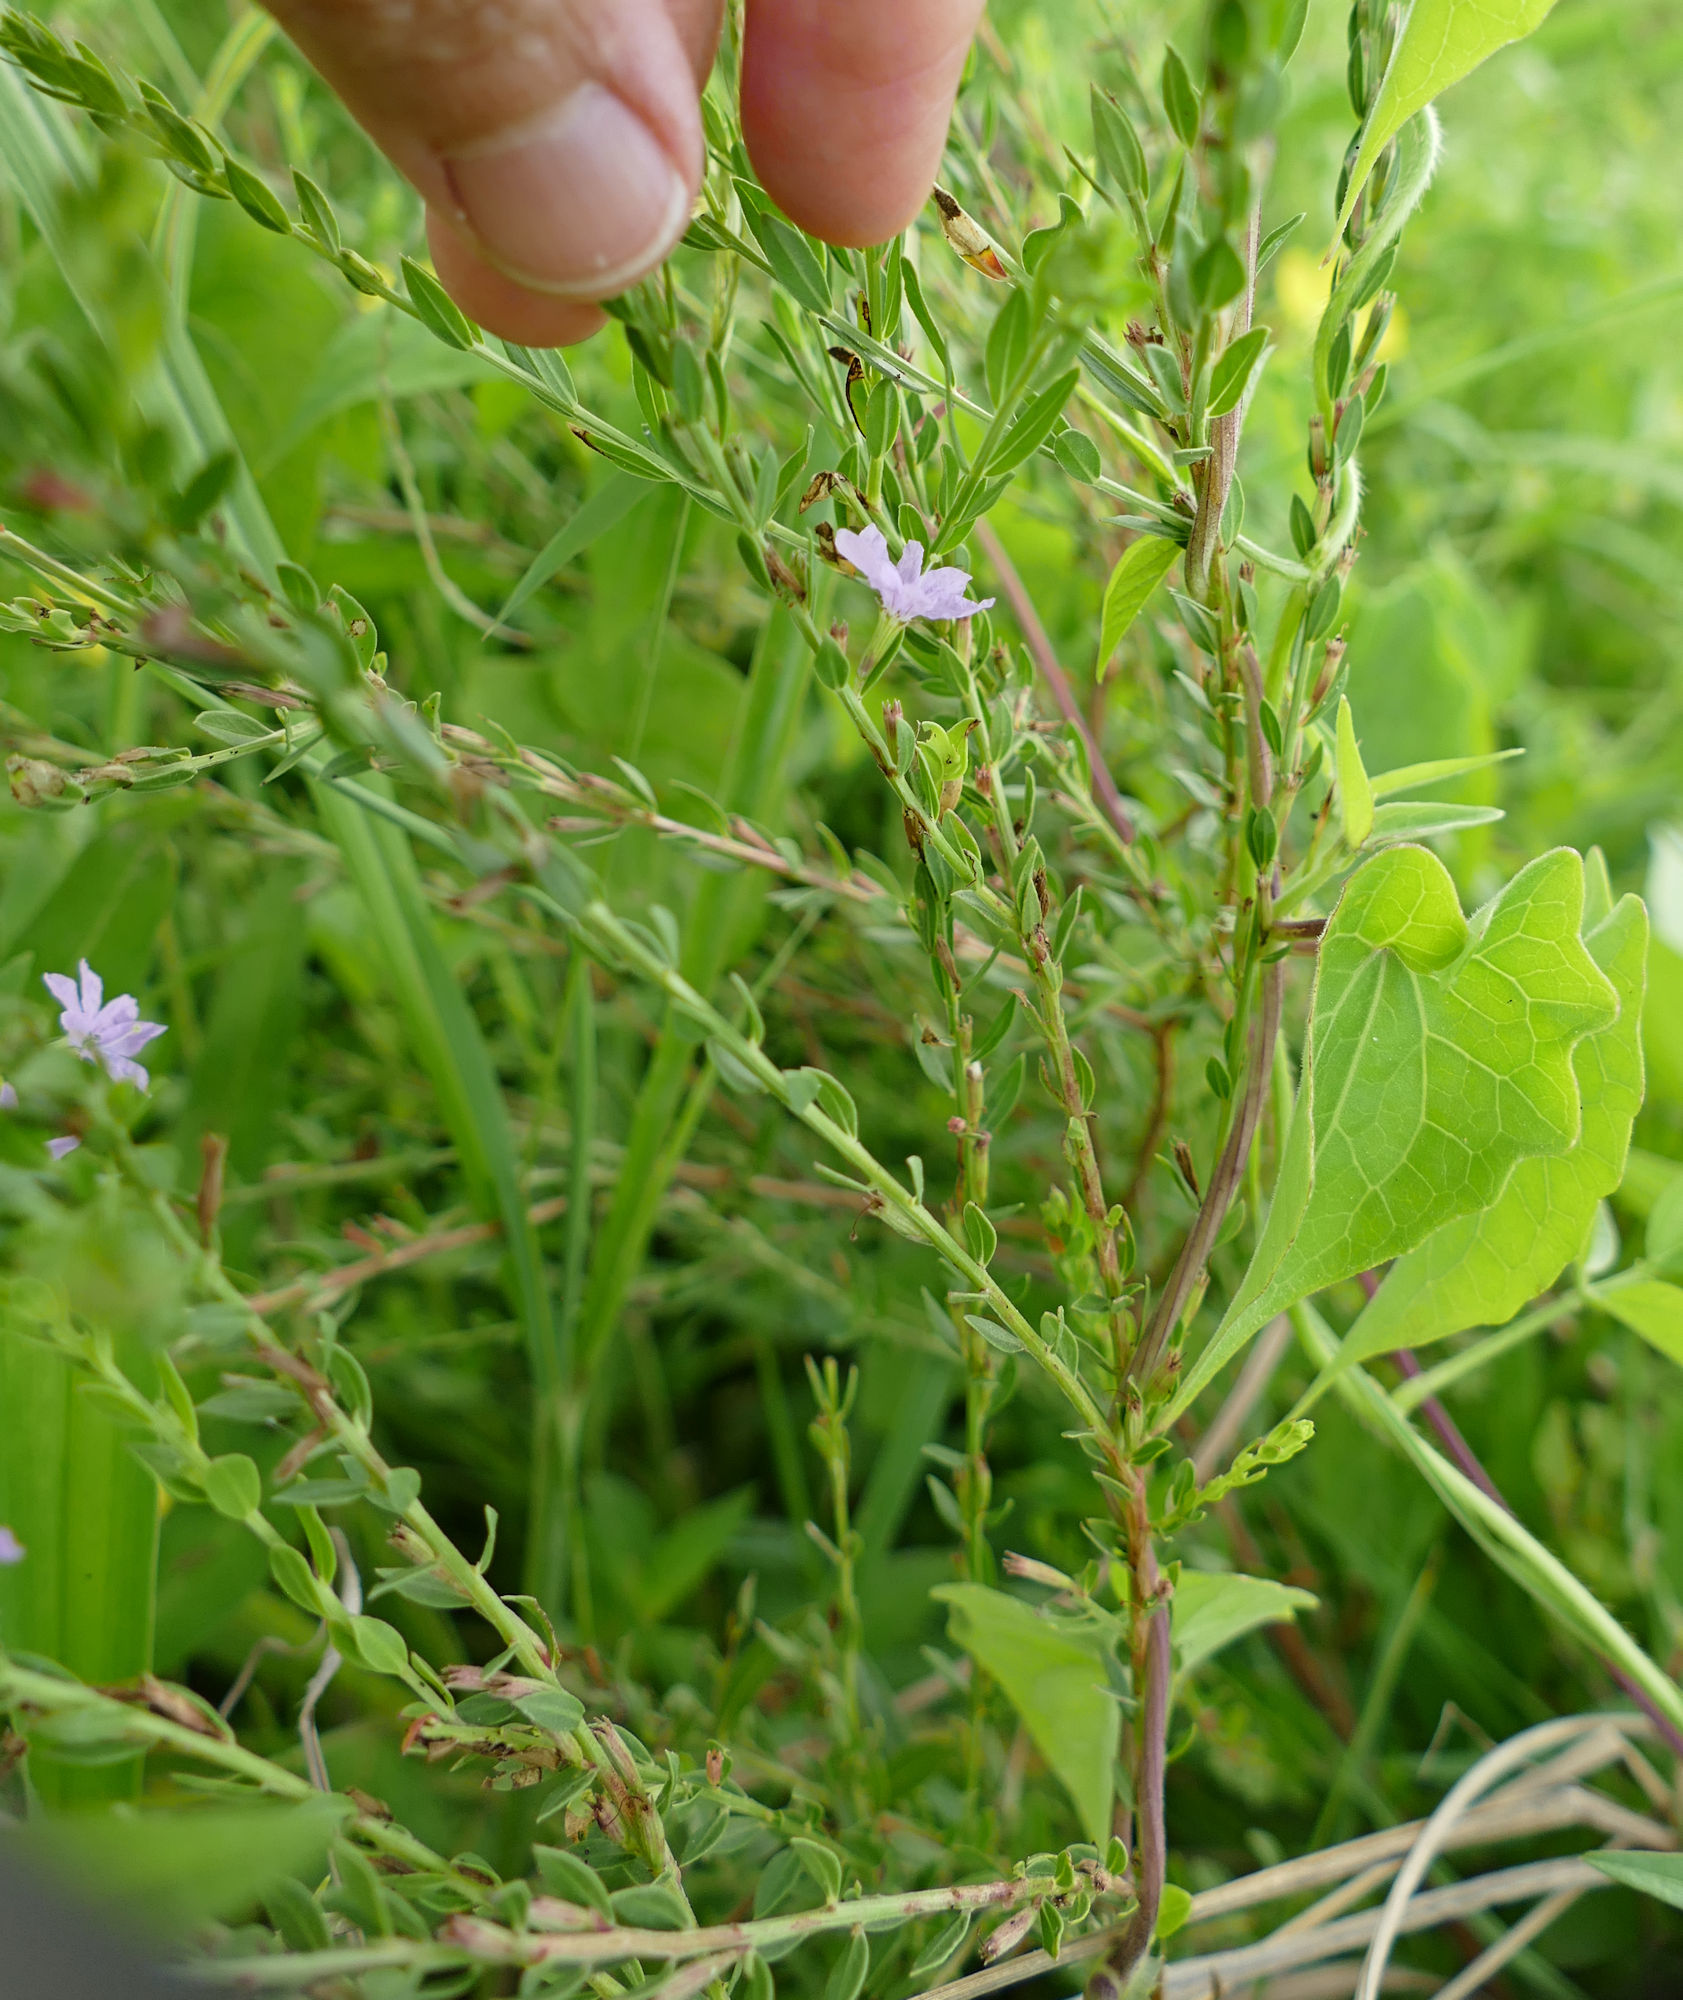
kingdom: Plantae
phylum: Tracheophyta
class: Magnoliopsida
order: Myrtales
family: Lythraceae
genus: Lythrum
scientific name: Lythrum alatum
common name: Winged loosestrife
